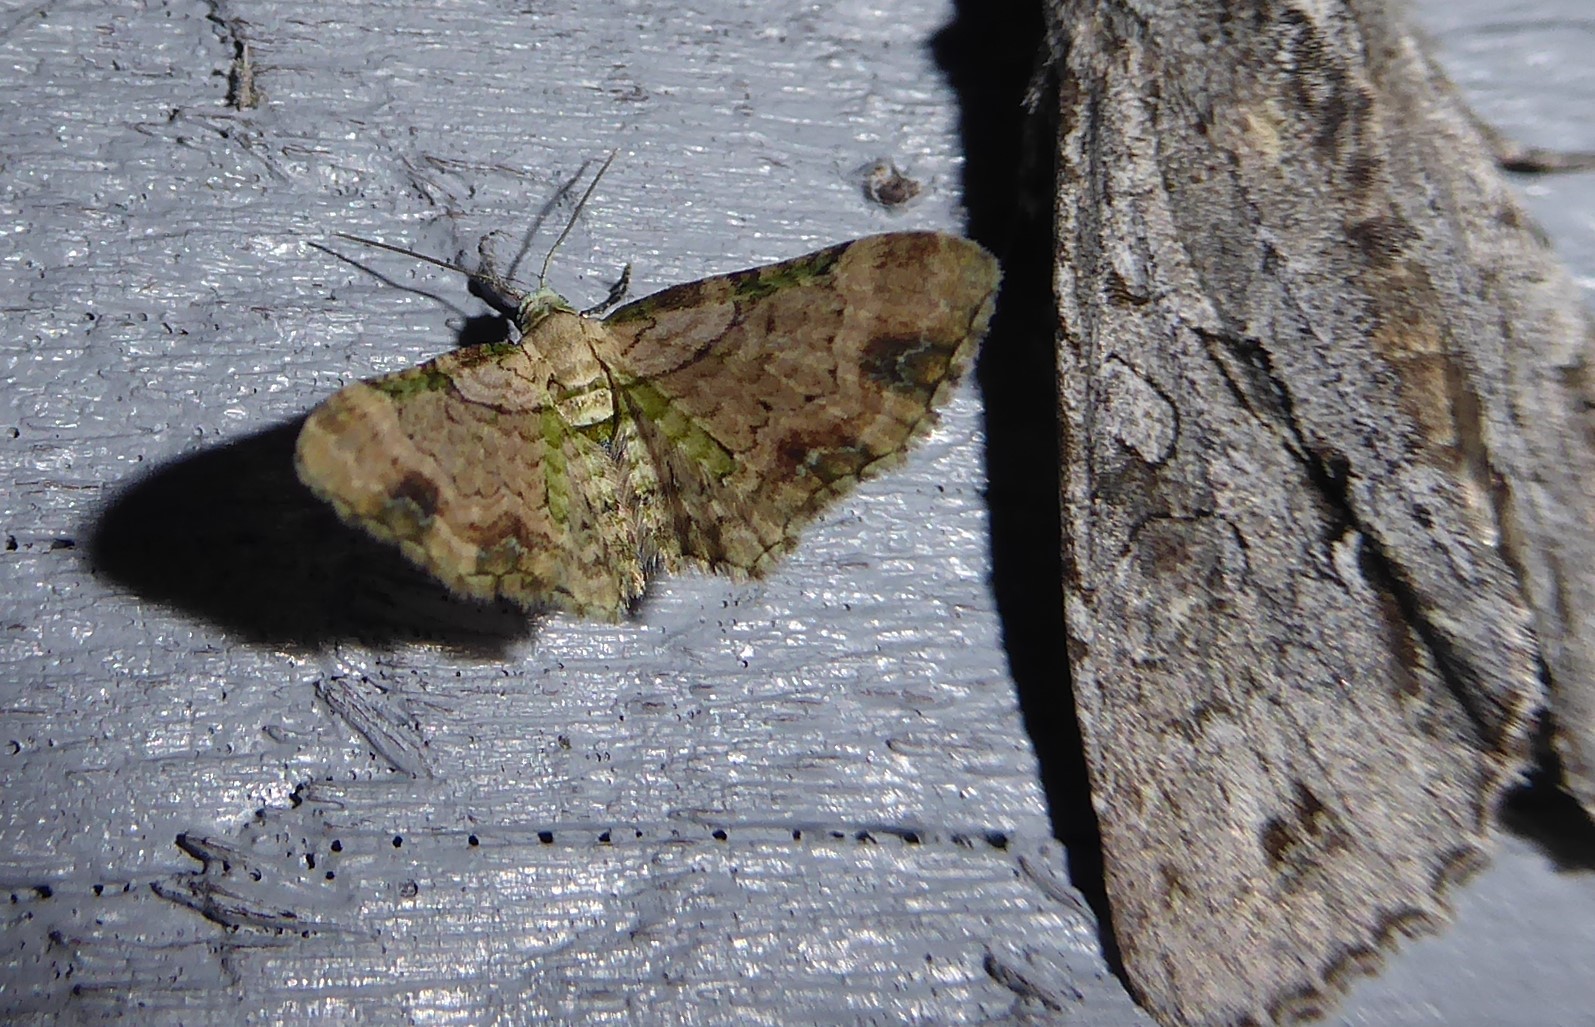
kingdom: Animalia
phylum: Arthropoda
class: Insecta
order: Lepidoptera
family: Geometridae
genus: Chloroclystis
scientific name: Chloroclystis
